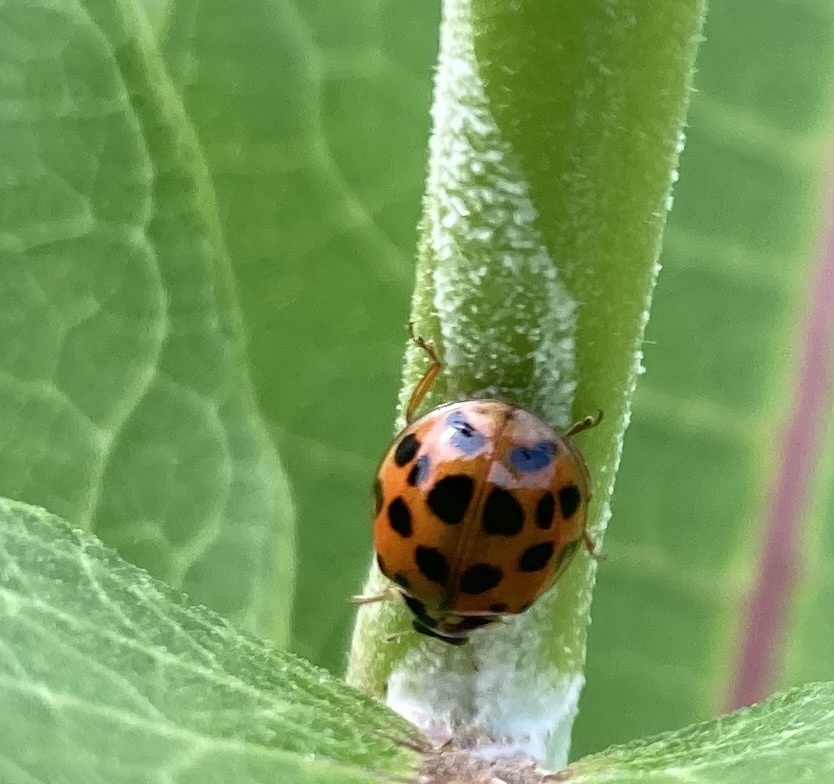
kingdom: Animalia
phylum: Arthropoda
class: Insecta
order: Coleoptera
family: Coccinellidae
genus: Harmonia
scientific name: Harmonia axyridis
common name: Harlequin ladybird
